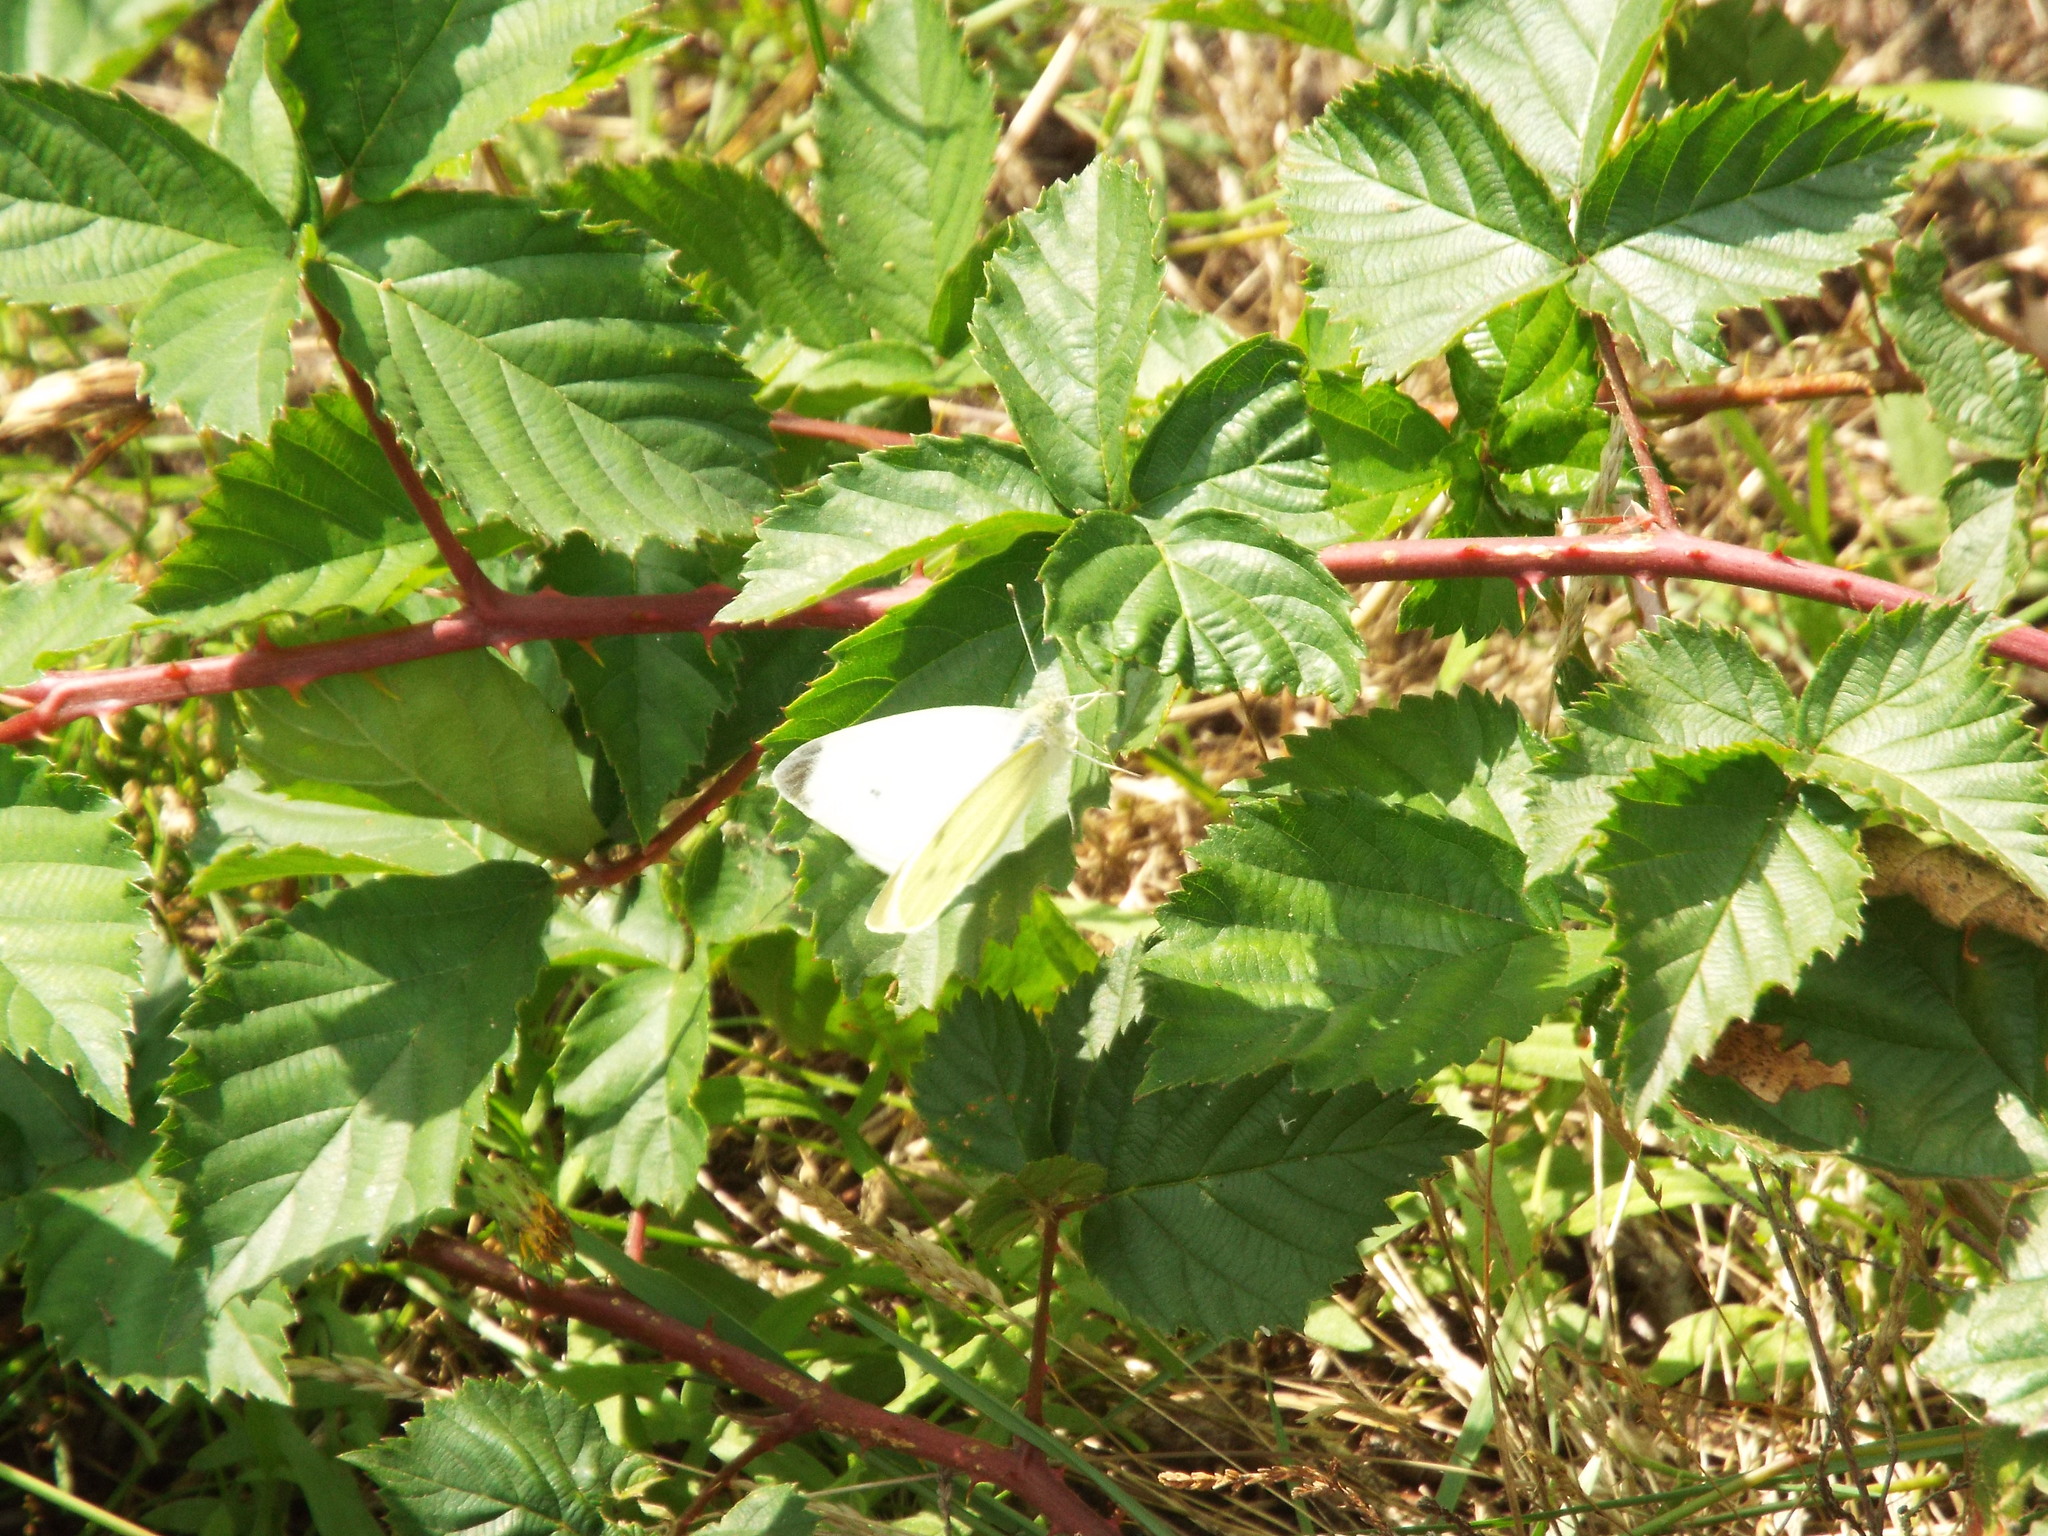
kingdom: Animalia
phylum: Arthropoda
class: Insecta
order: Lepidoptera
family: Pieridae
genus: Pieris
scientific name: Pieris rapae
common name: Small white
